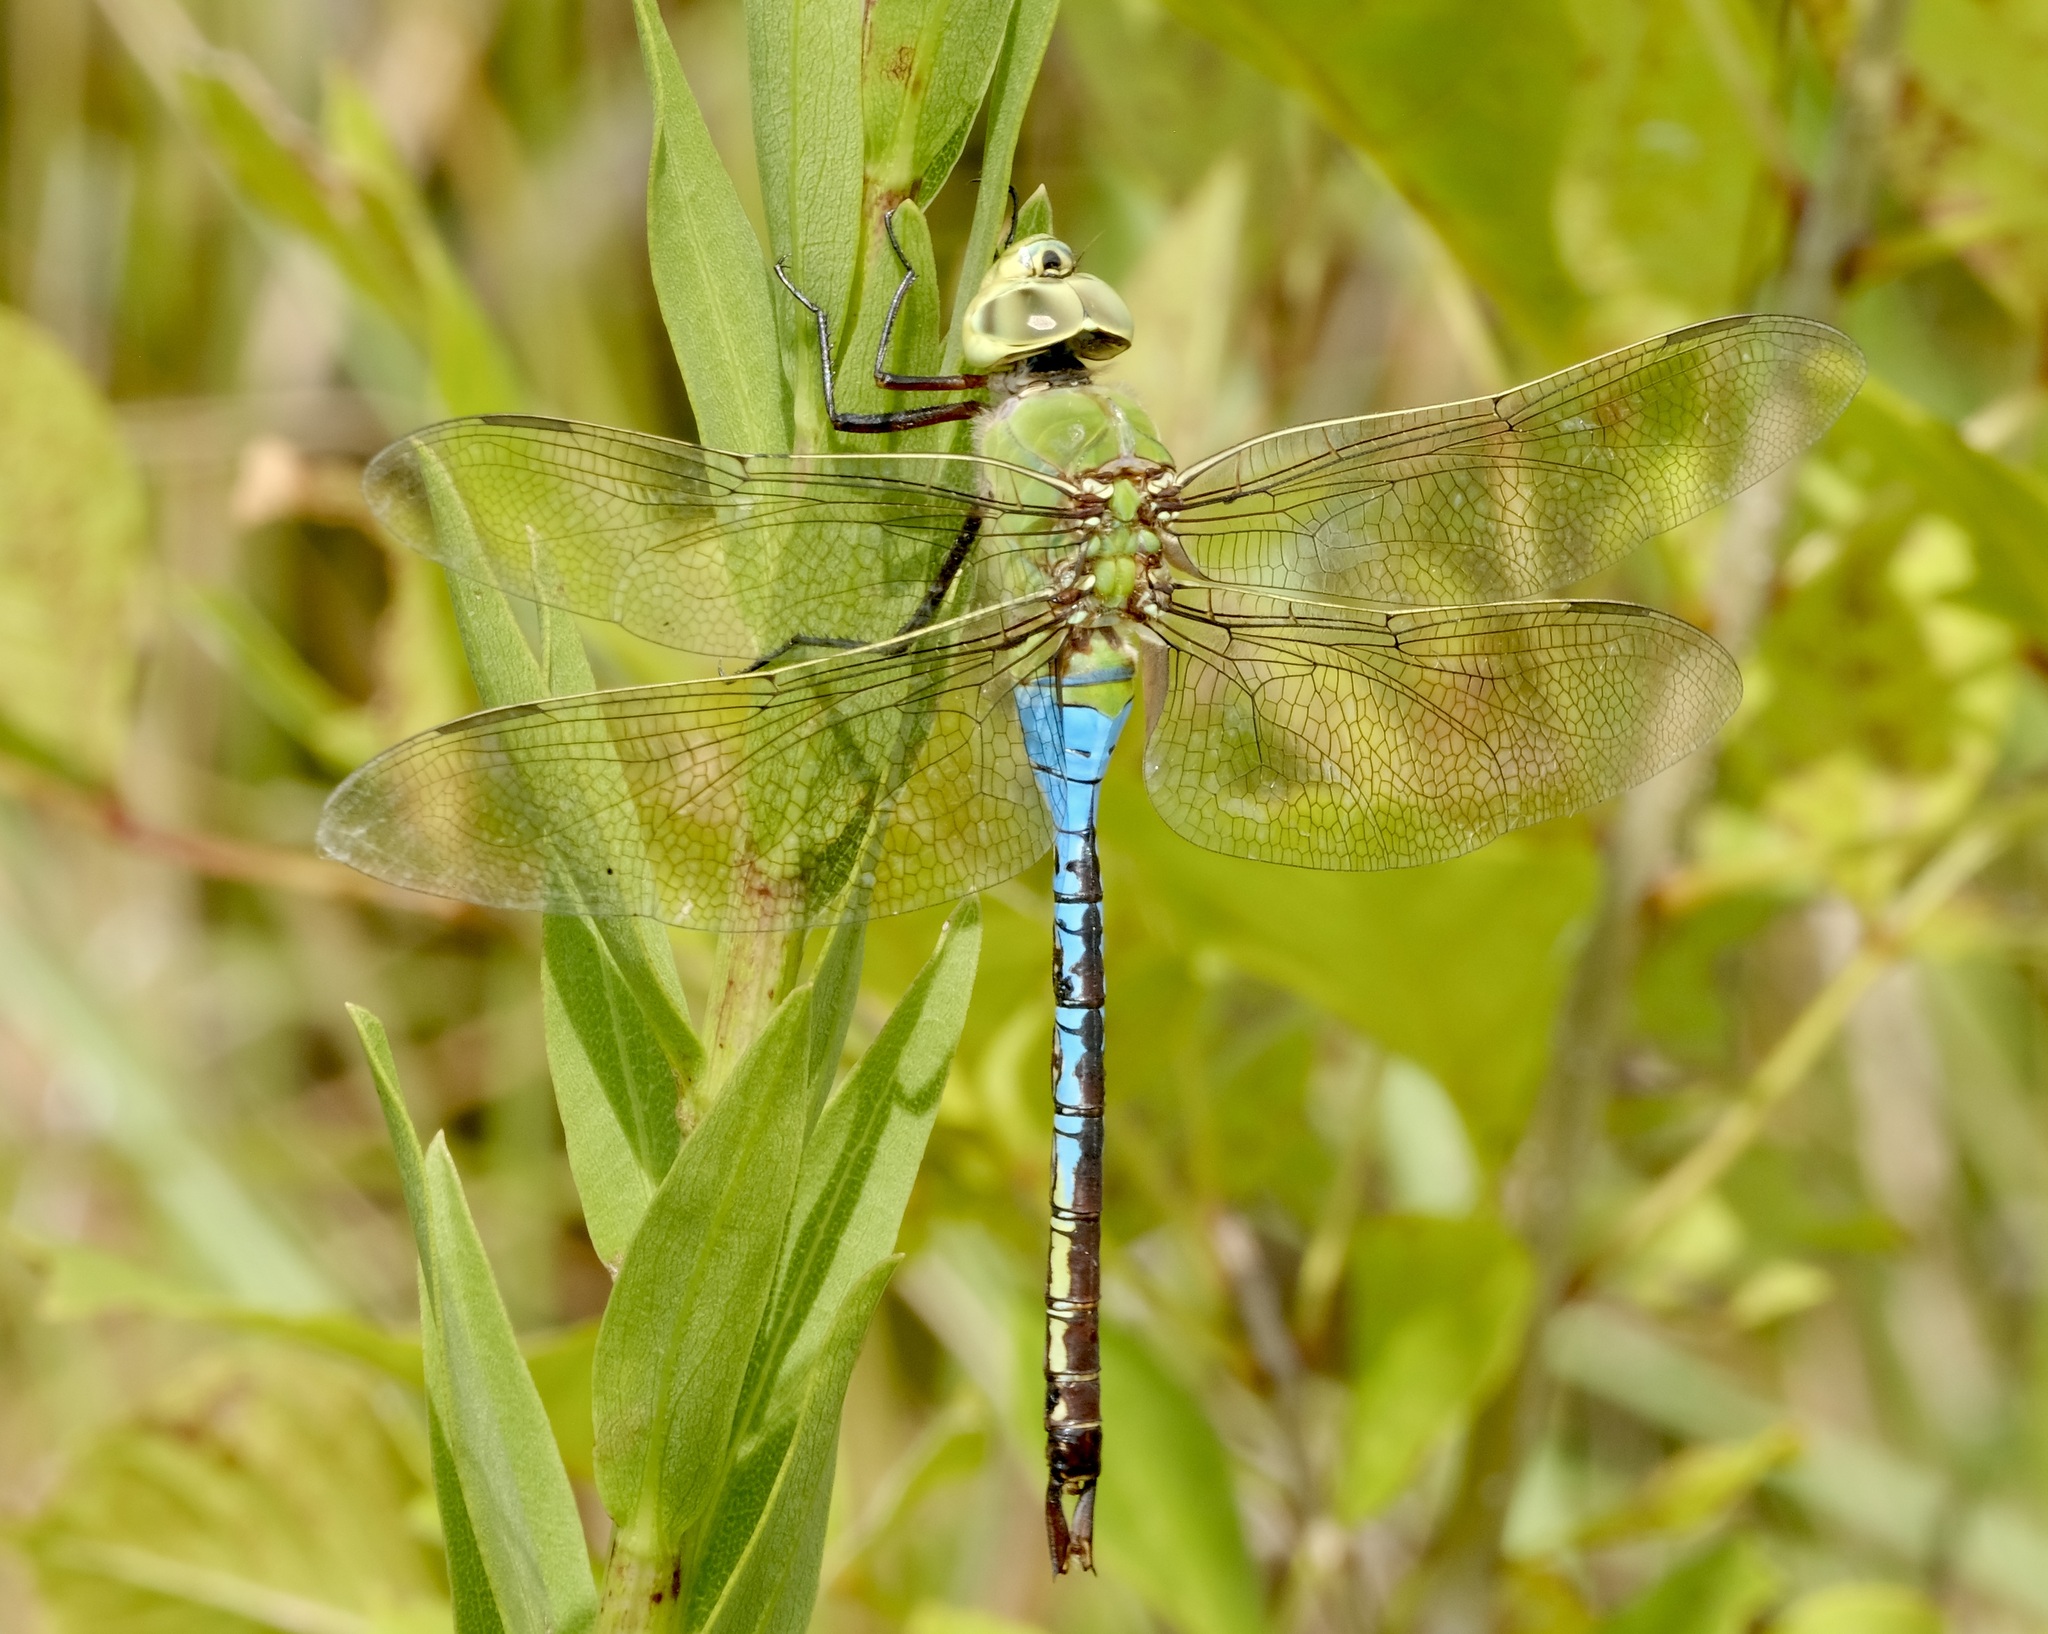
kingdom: Animalia
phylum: Arthropoda
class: Insecta
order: Odonata
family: Aeshnidae
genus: Anax
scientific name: Anax junius
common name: Common green darner
